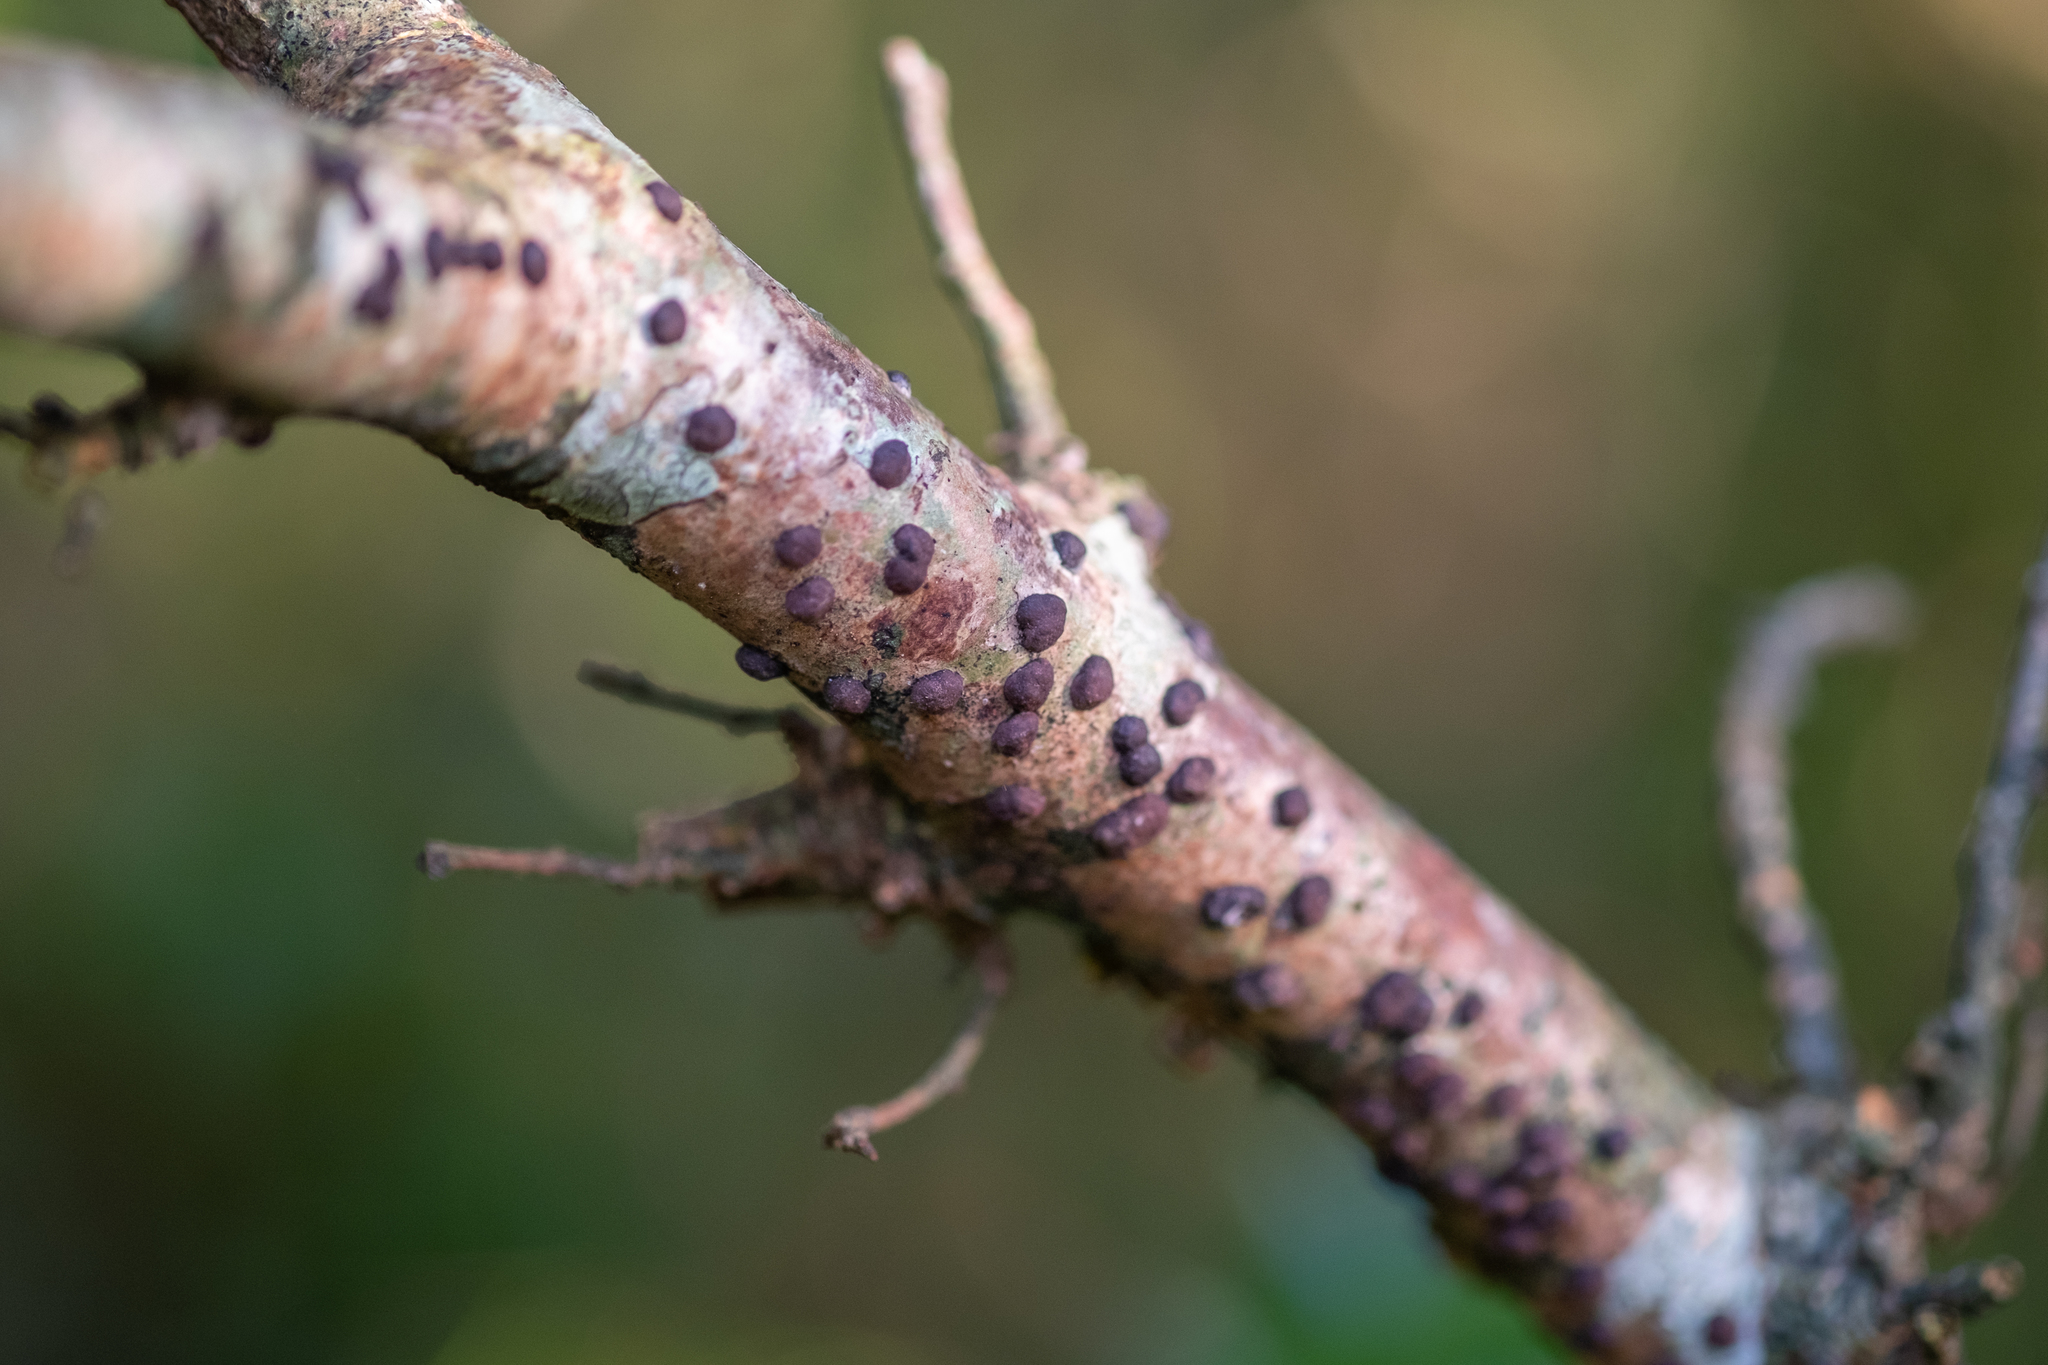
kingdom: Fungi
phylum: Ascomycota
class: Sordariomycetes
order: Xylariales
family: Hypoxylaceae
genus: Hypoxylon
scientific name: Hypoxylon fuscum
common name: Hazel woodwart
